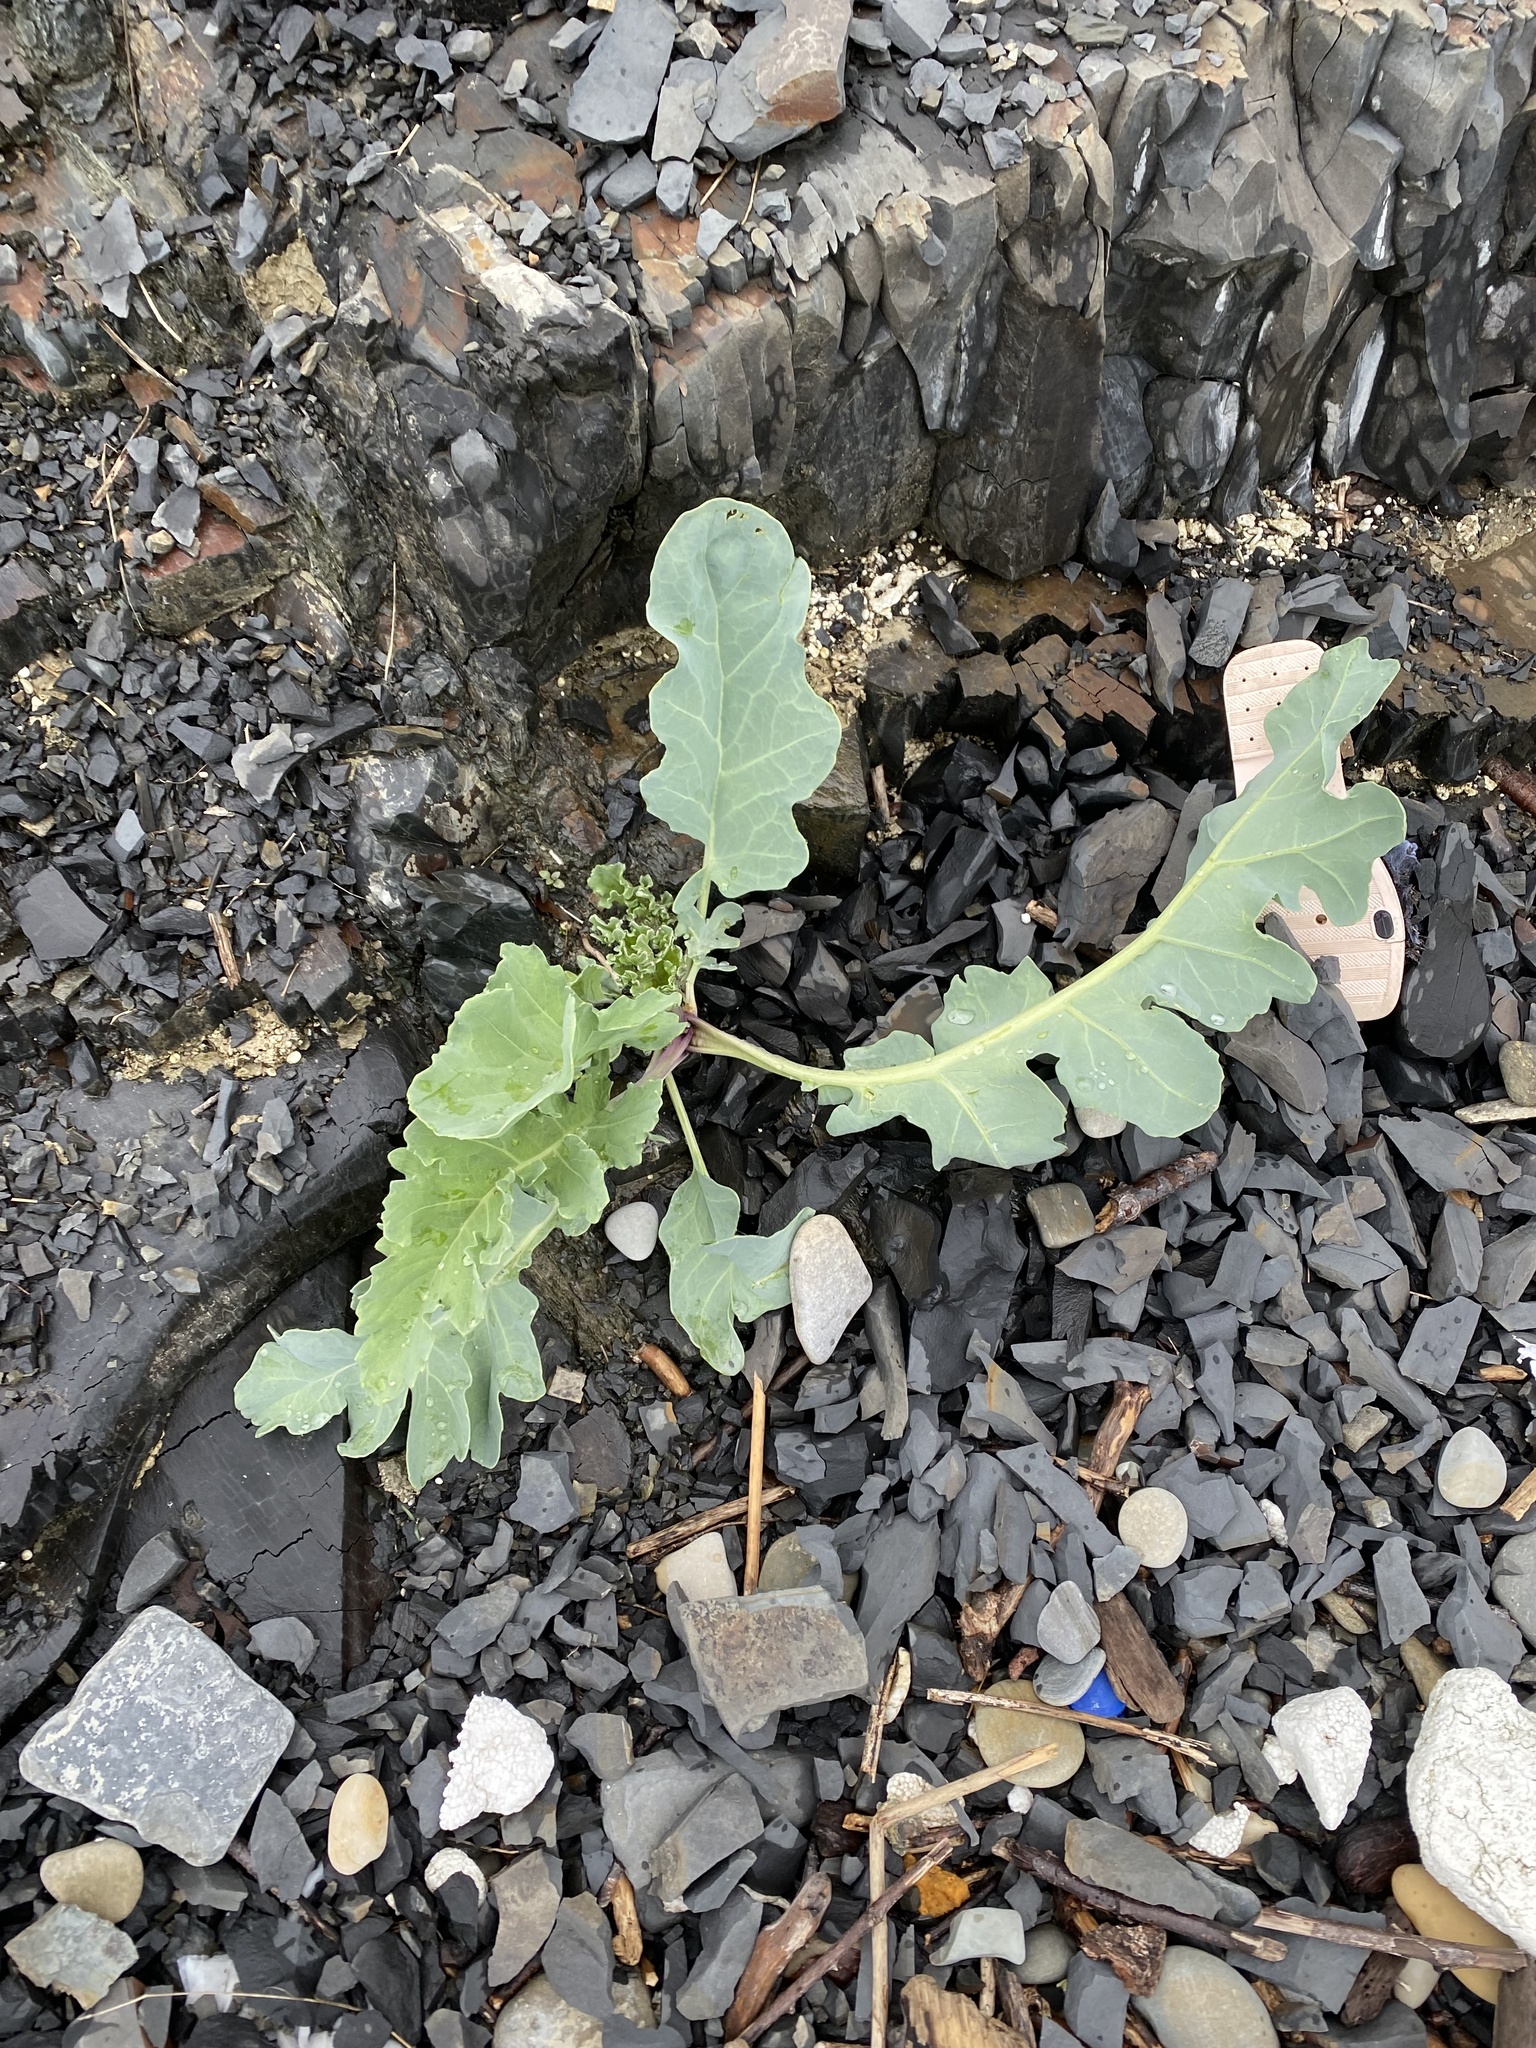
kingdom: Plantae
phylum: Tracheophyta
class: Magnoliopsida
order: Brassicales
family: Brassicaceae
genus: Crambe
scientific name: Crambe maritima
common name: Sea-kale
